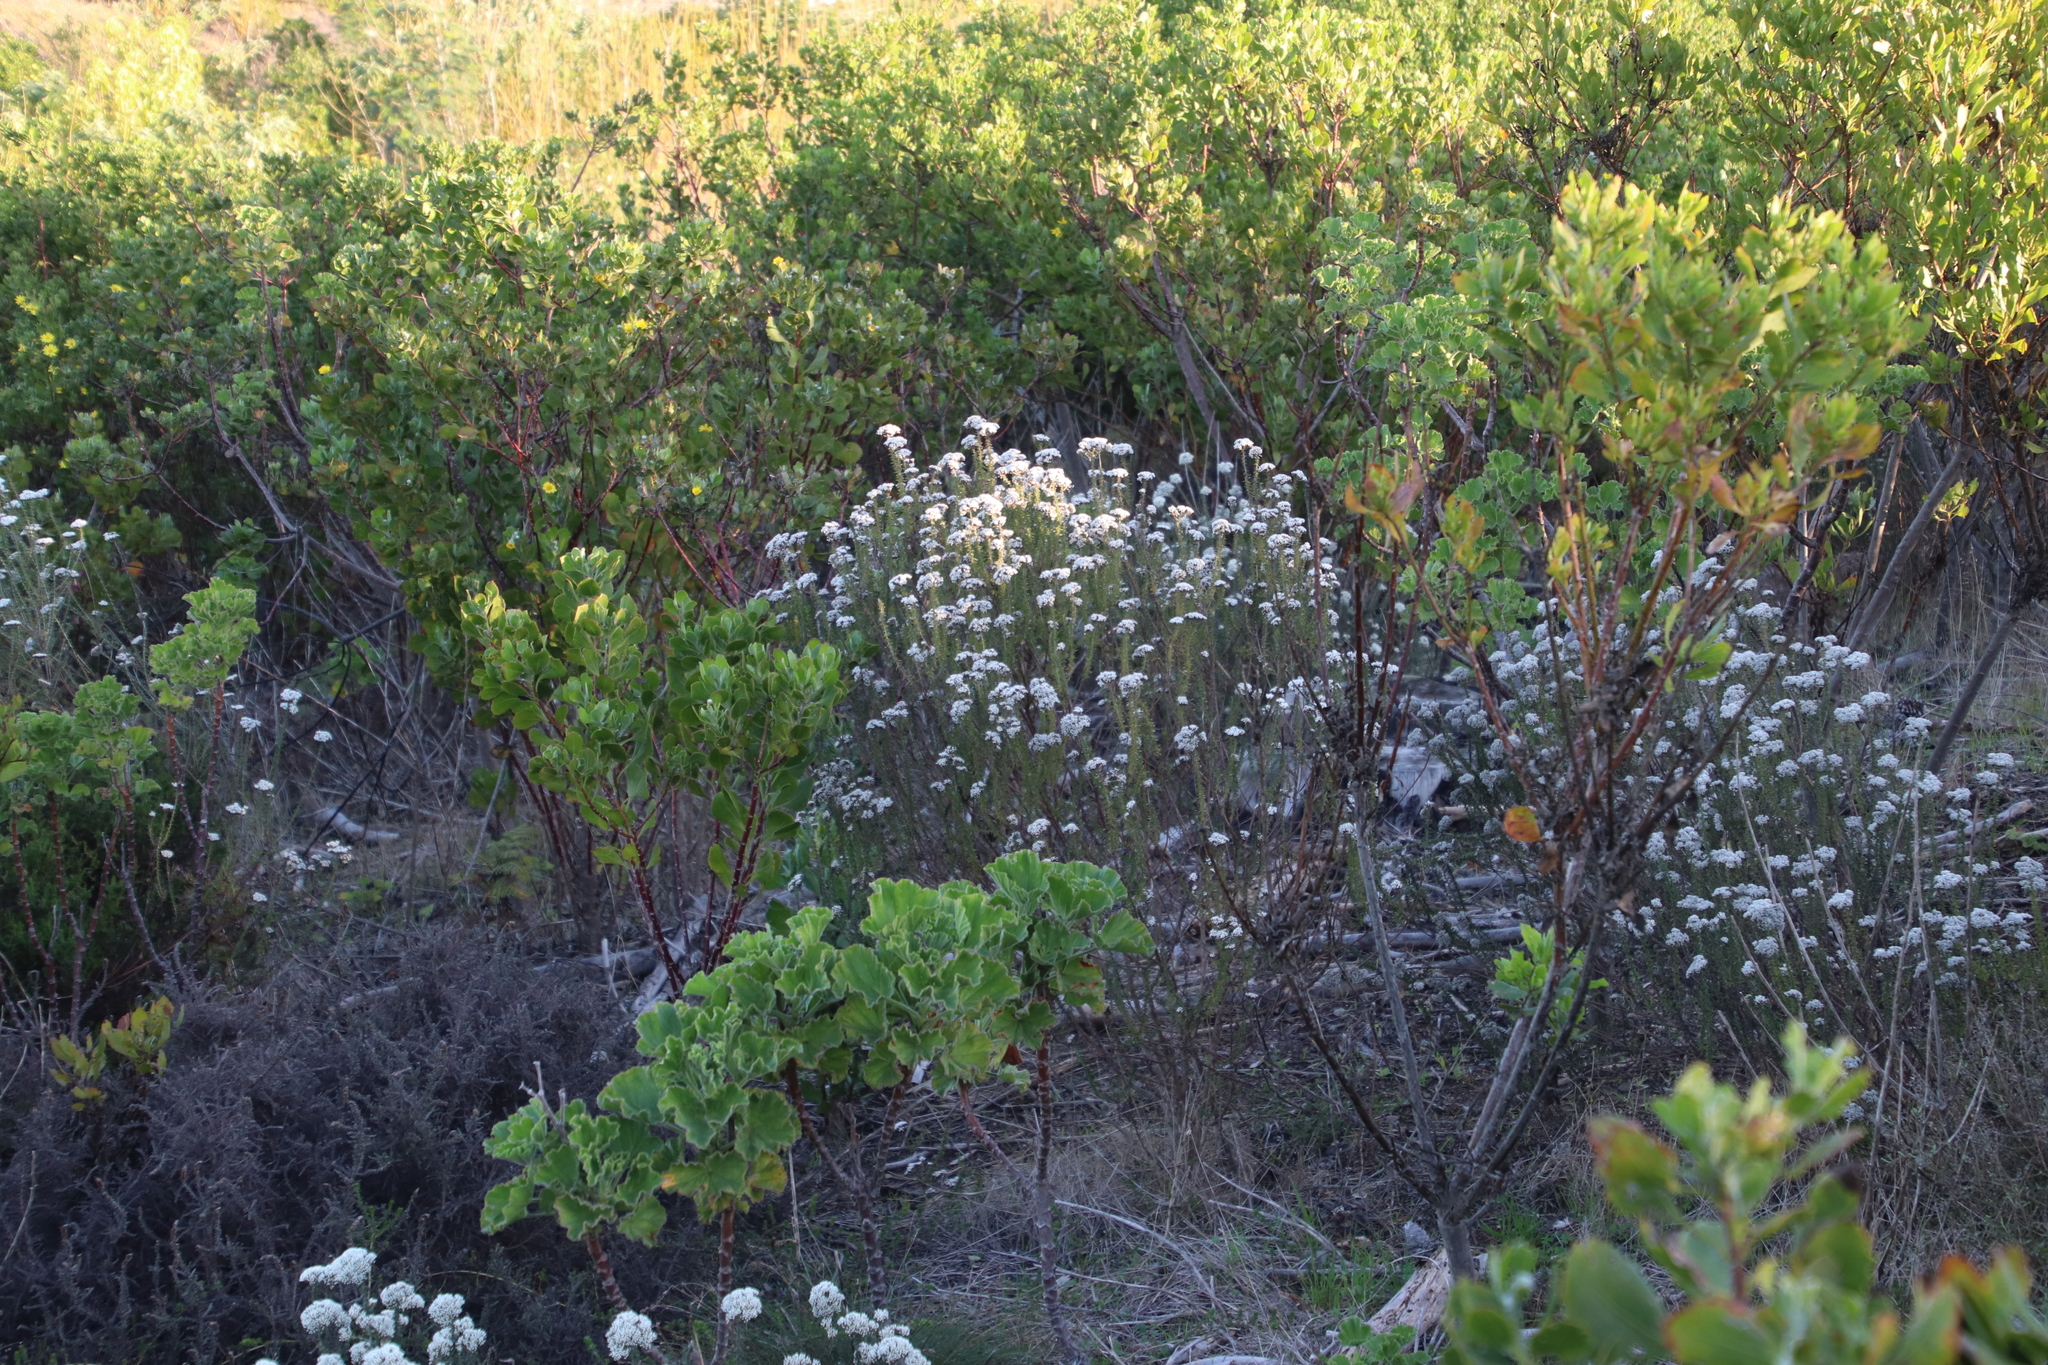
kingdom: Plantae
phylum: Tracheophyta
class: Magnoliopsida
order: Asterales
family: Asteraceae
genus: Metalasia
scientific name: Metalasia densa
